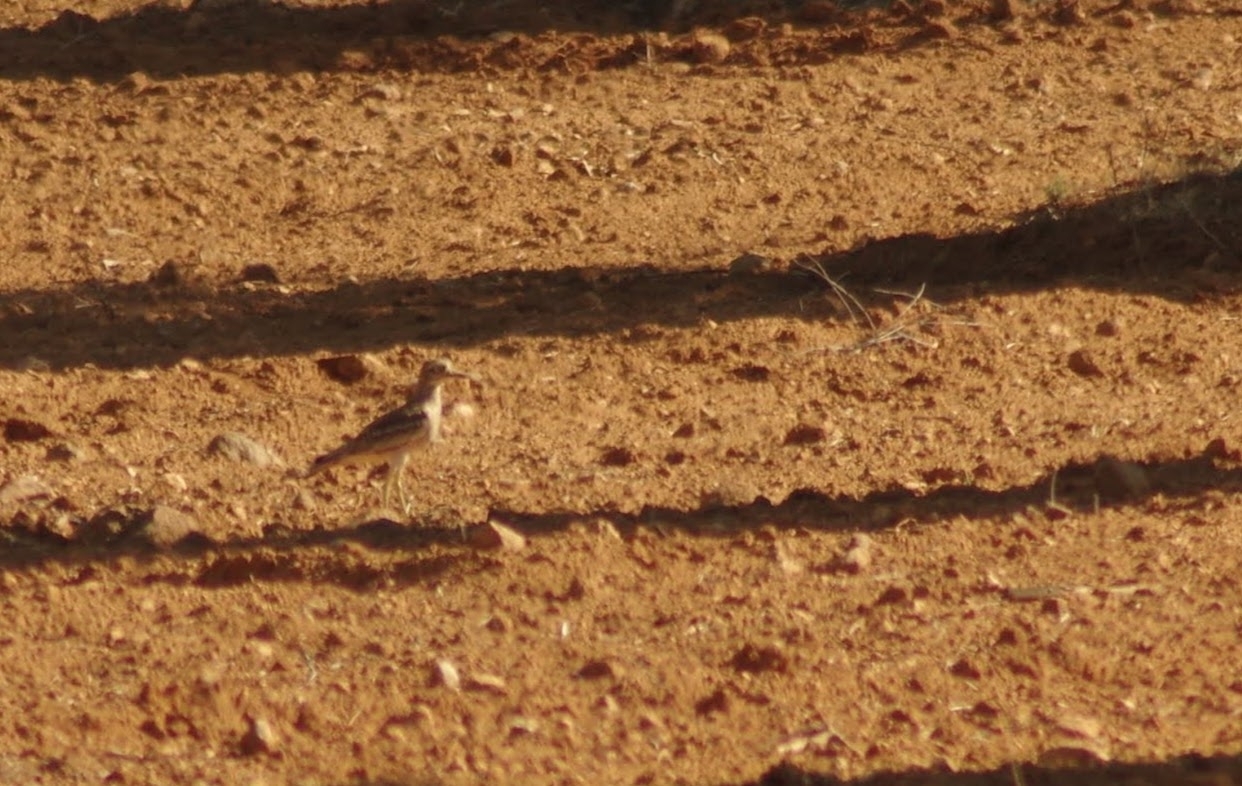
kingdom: Animalia
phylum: Chordata
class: Aves
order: Charadriiformes
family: Burhinidae
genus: Burhinus
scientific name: Burhinus oedicnemus
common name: Eurasian stone-curlew
